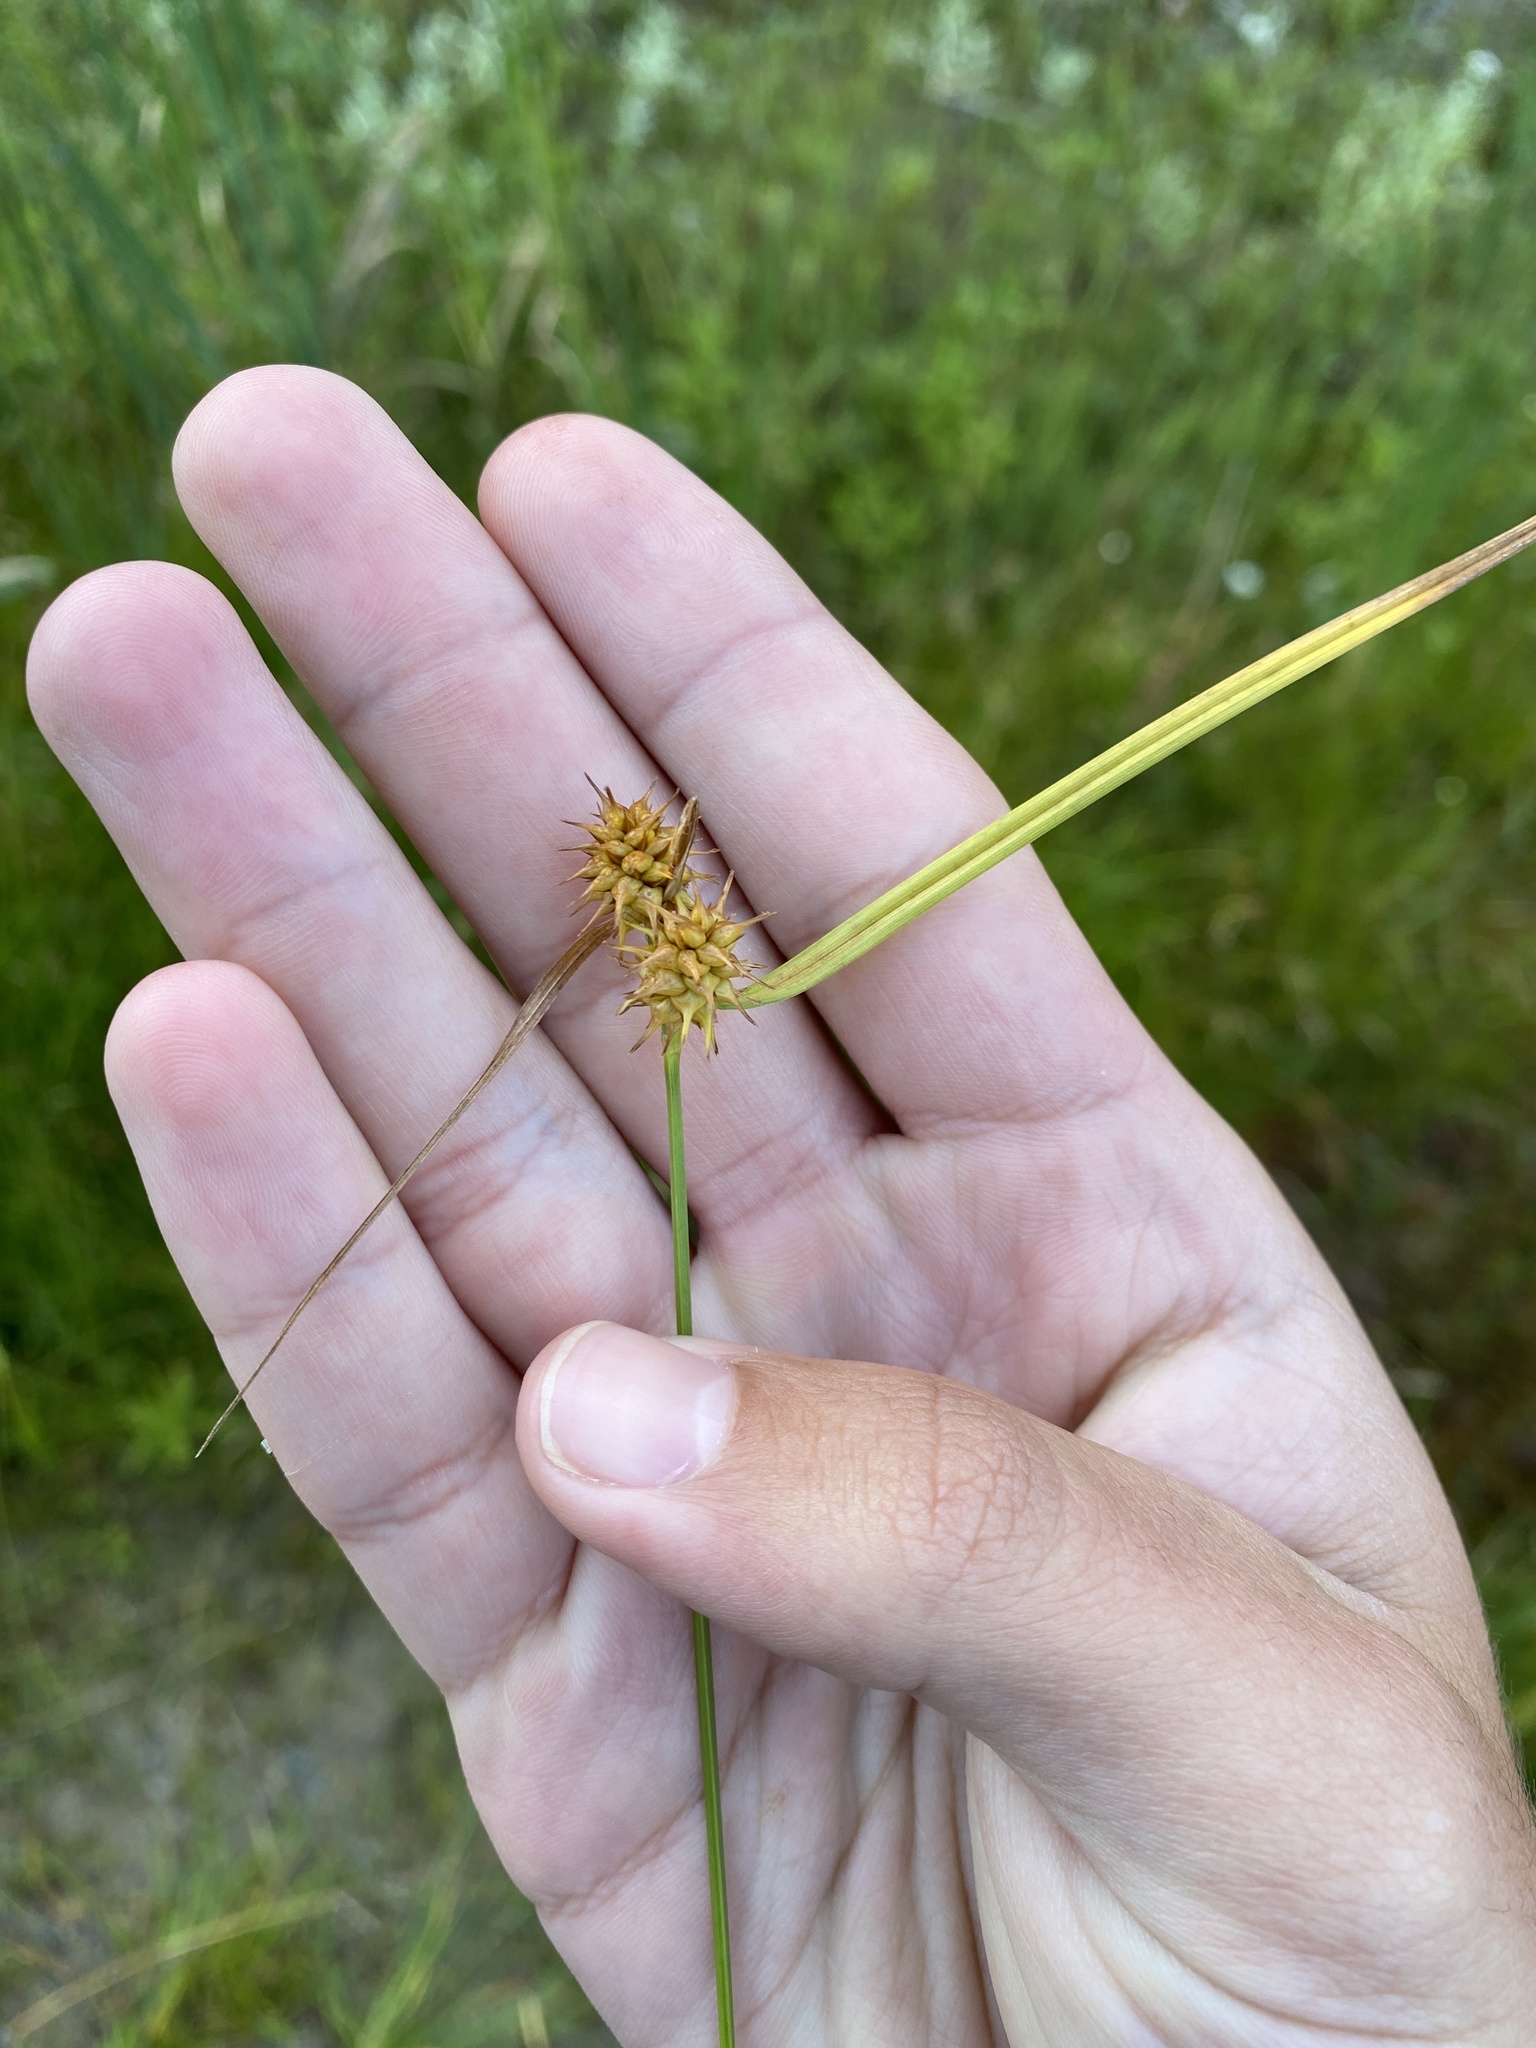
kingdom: Plantae
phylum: Tracheophyta
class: Liliopsida
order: Poales
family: Cyperaceae
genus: Carex
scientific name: Carex flava
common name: Large yellow-sedge
